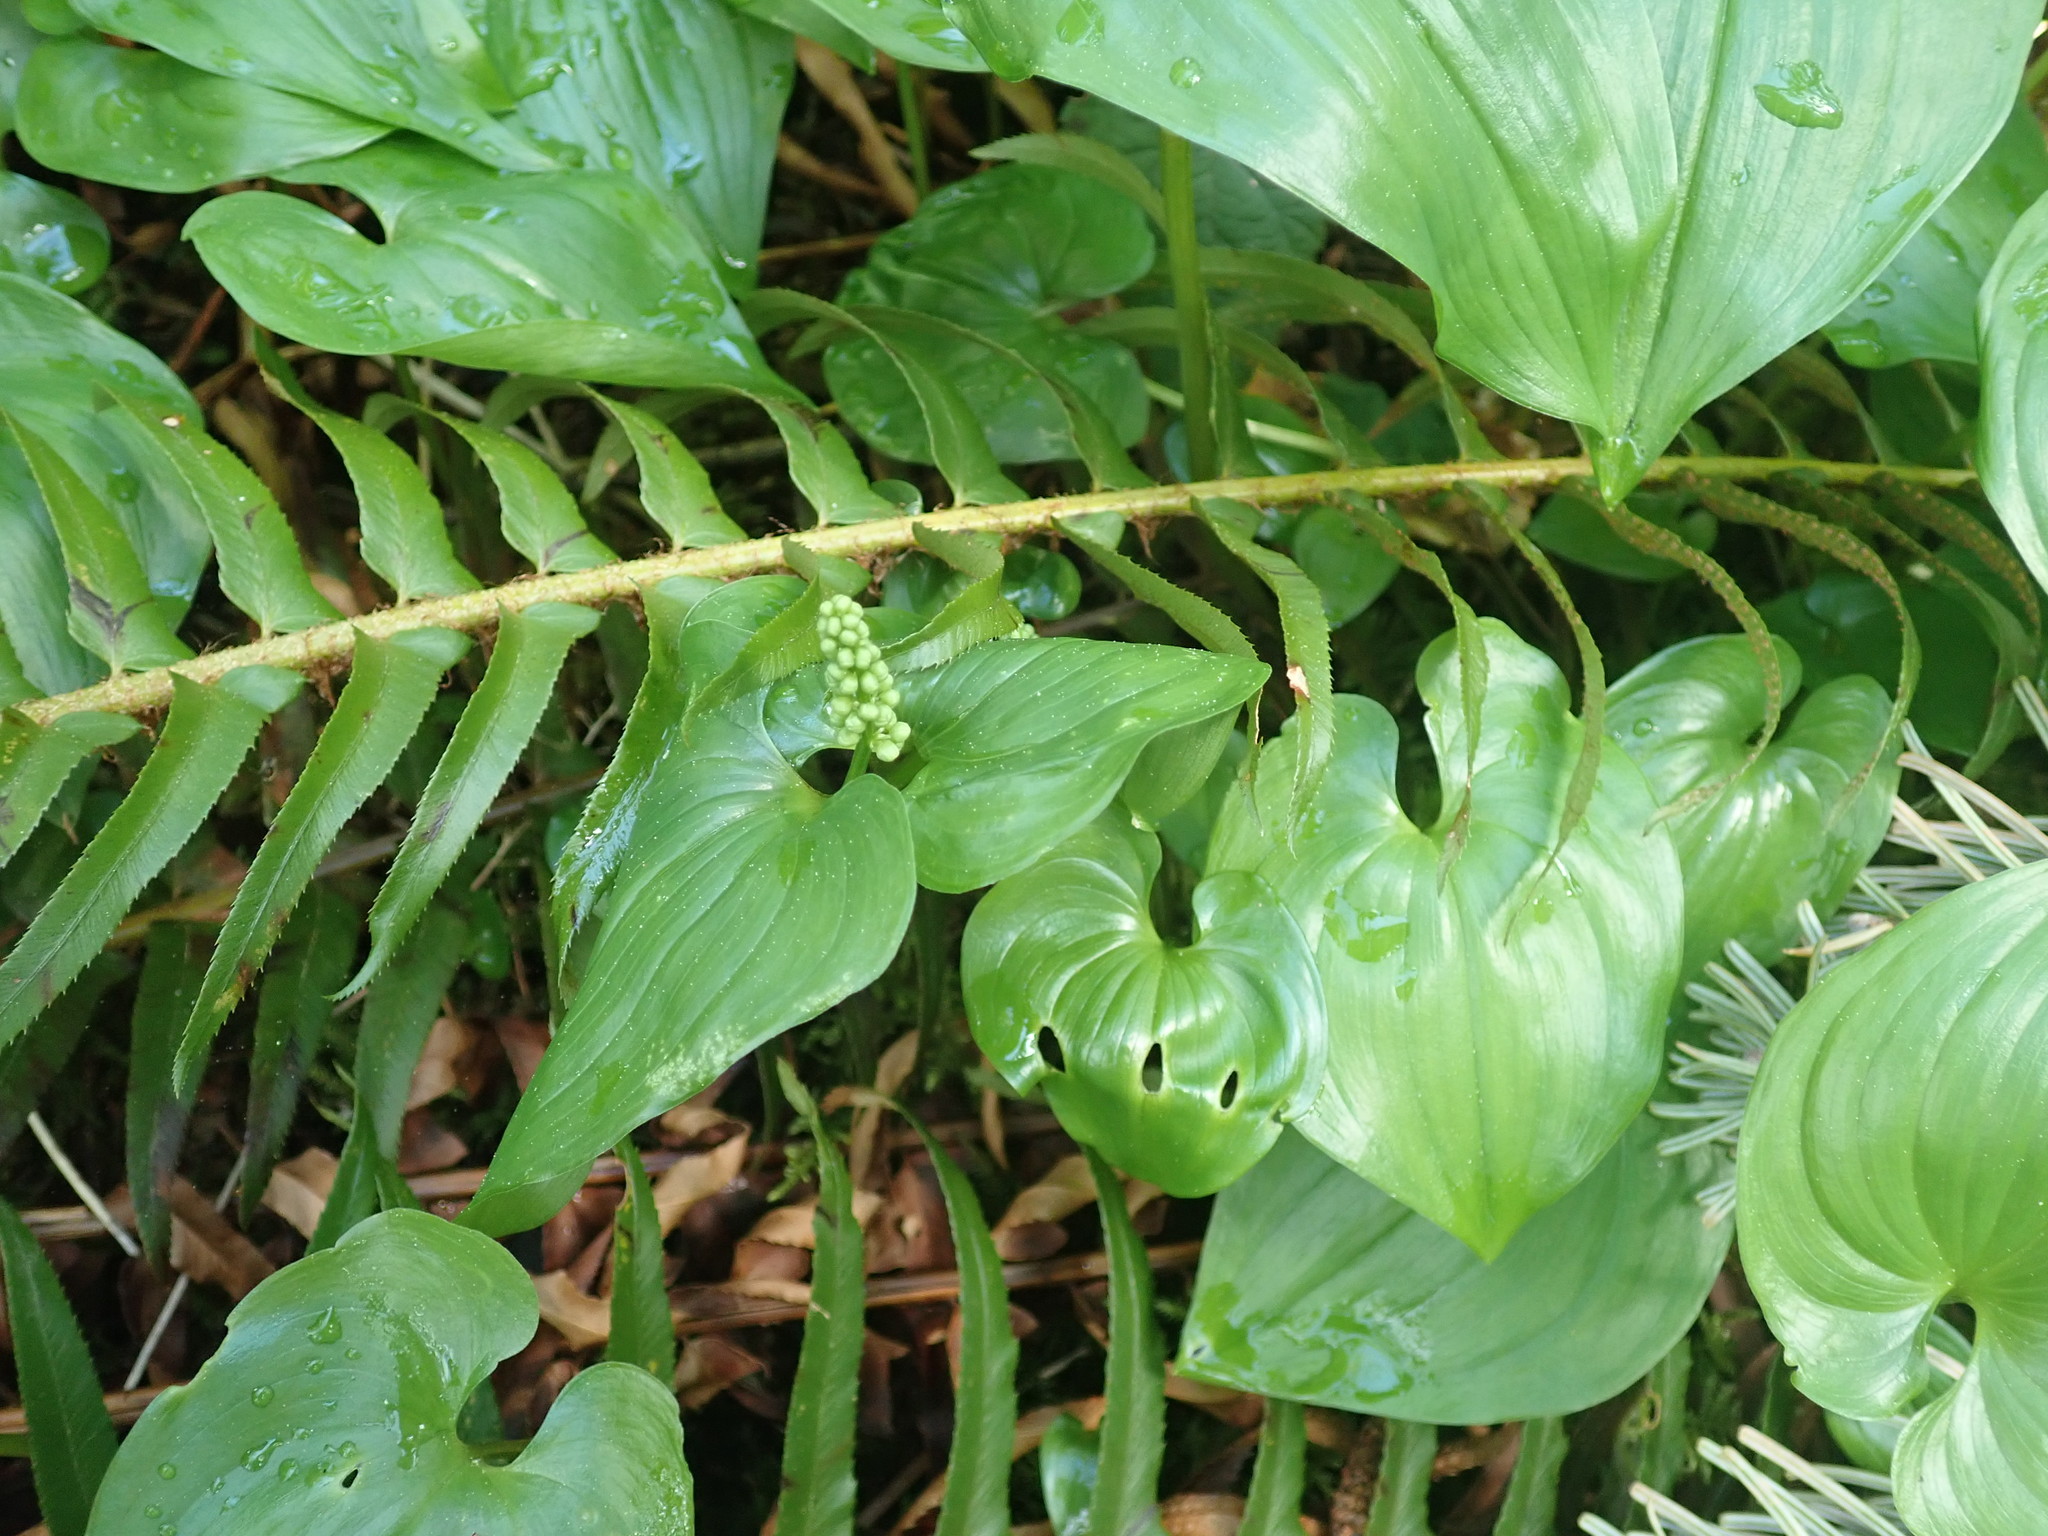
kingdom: Plantae
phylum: Tracheophyta
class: Liliopsida
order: Asparagales
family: Asparagaceae
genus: Maianthemum
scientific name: Maianthemum dilatatum
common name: False lily-of-the-valley
